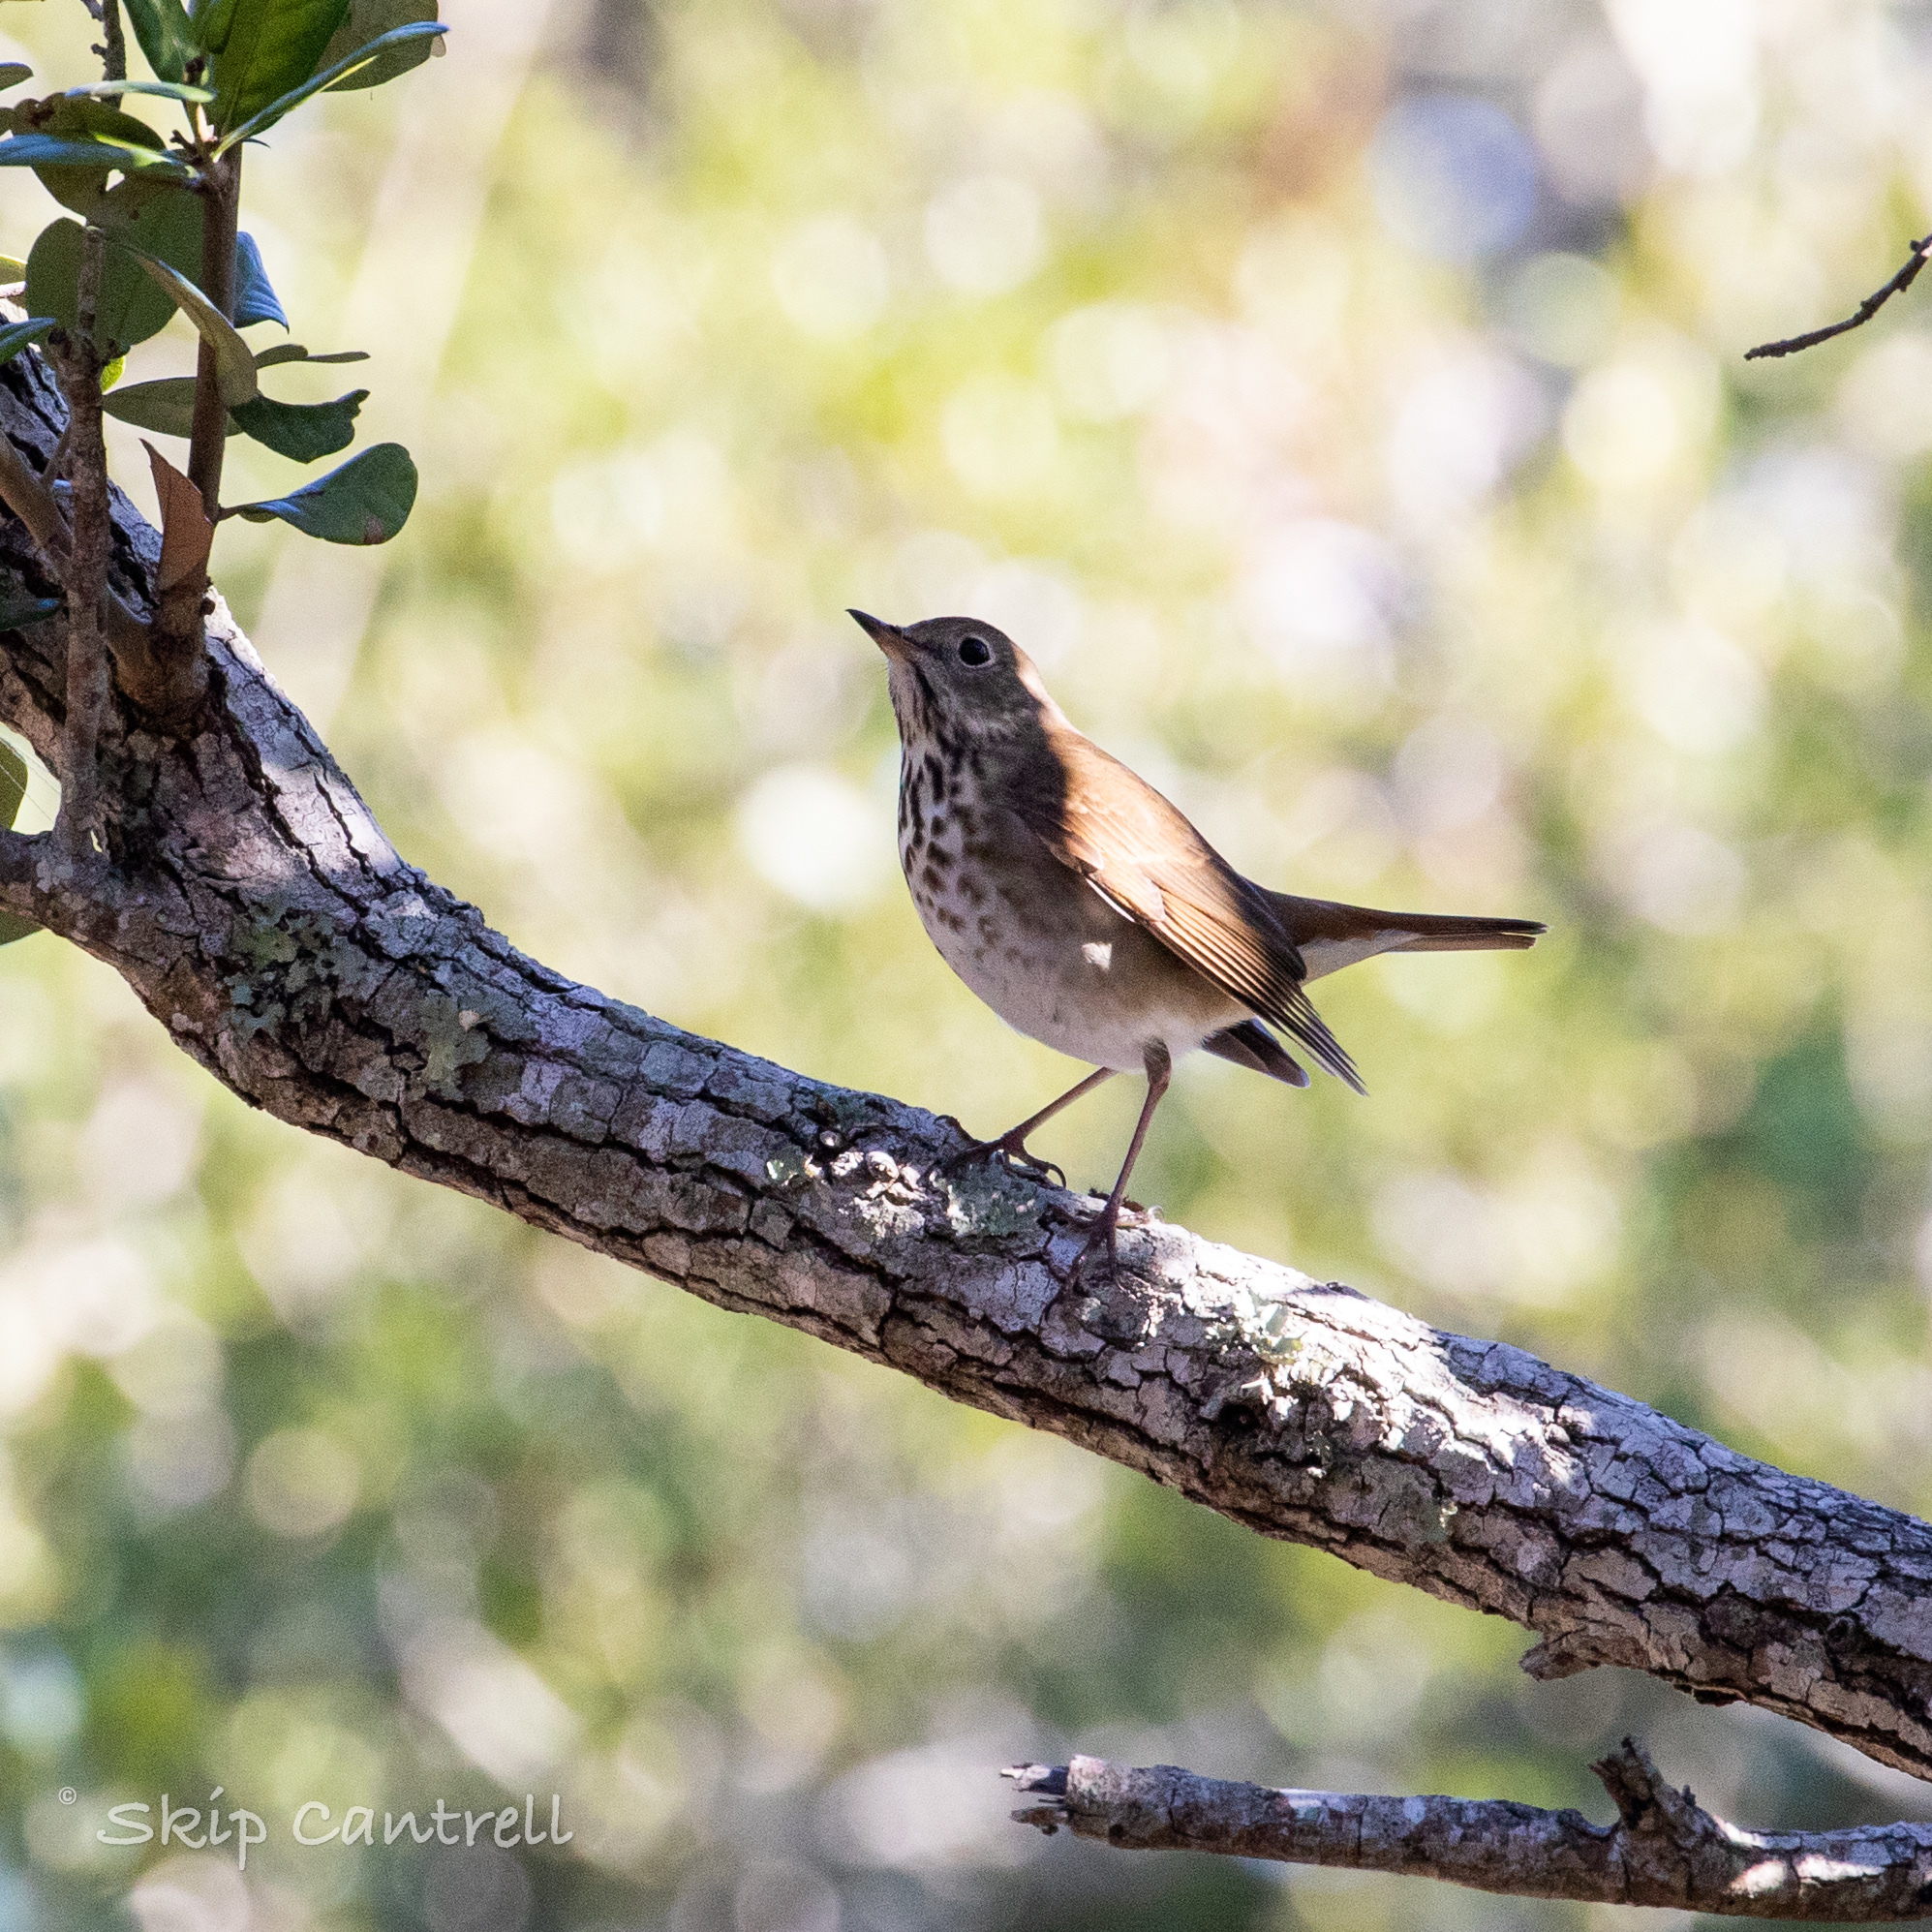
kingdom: Animalia
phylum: Chordata
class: Aves
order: Passeriformes
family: Turdidae
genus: Catharus
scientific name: Catharus guttatus
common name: Hermit thrush
